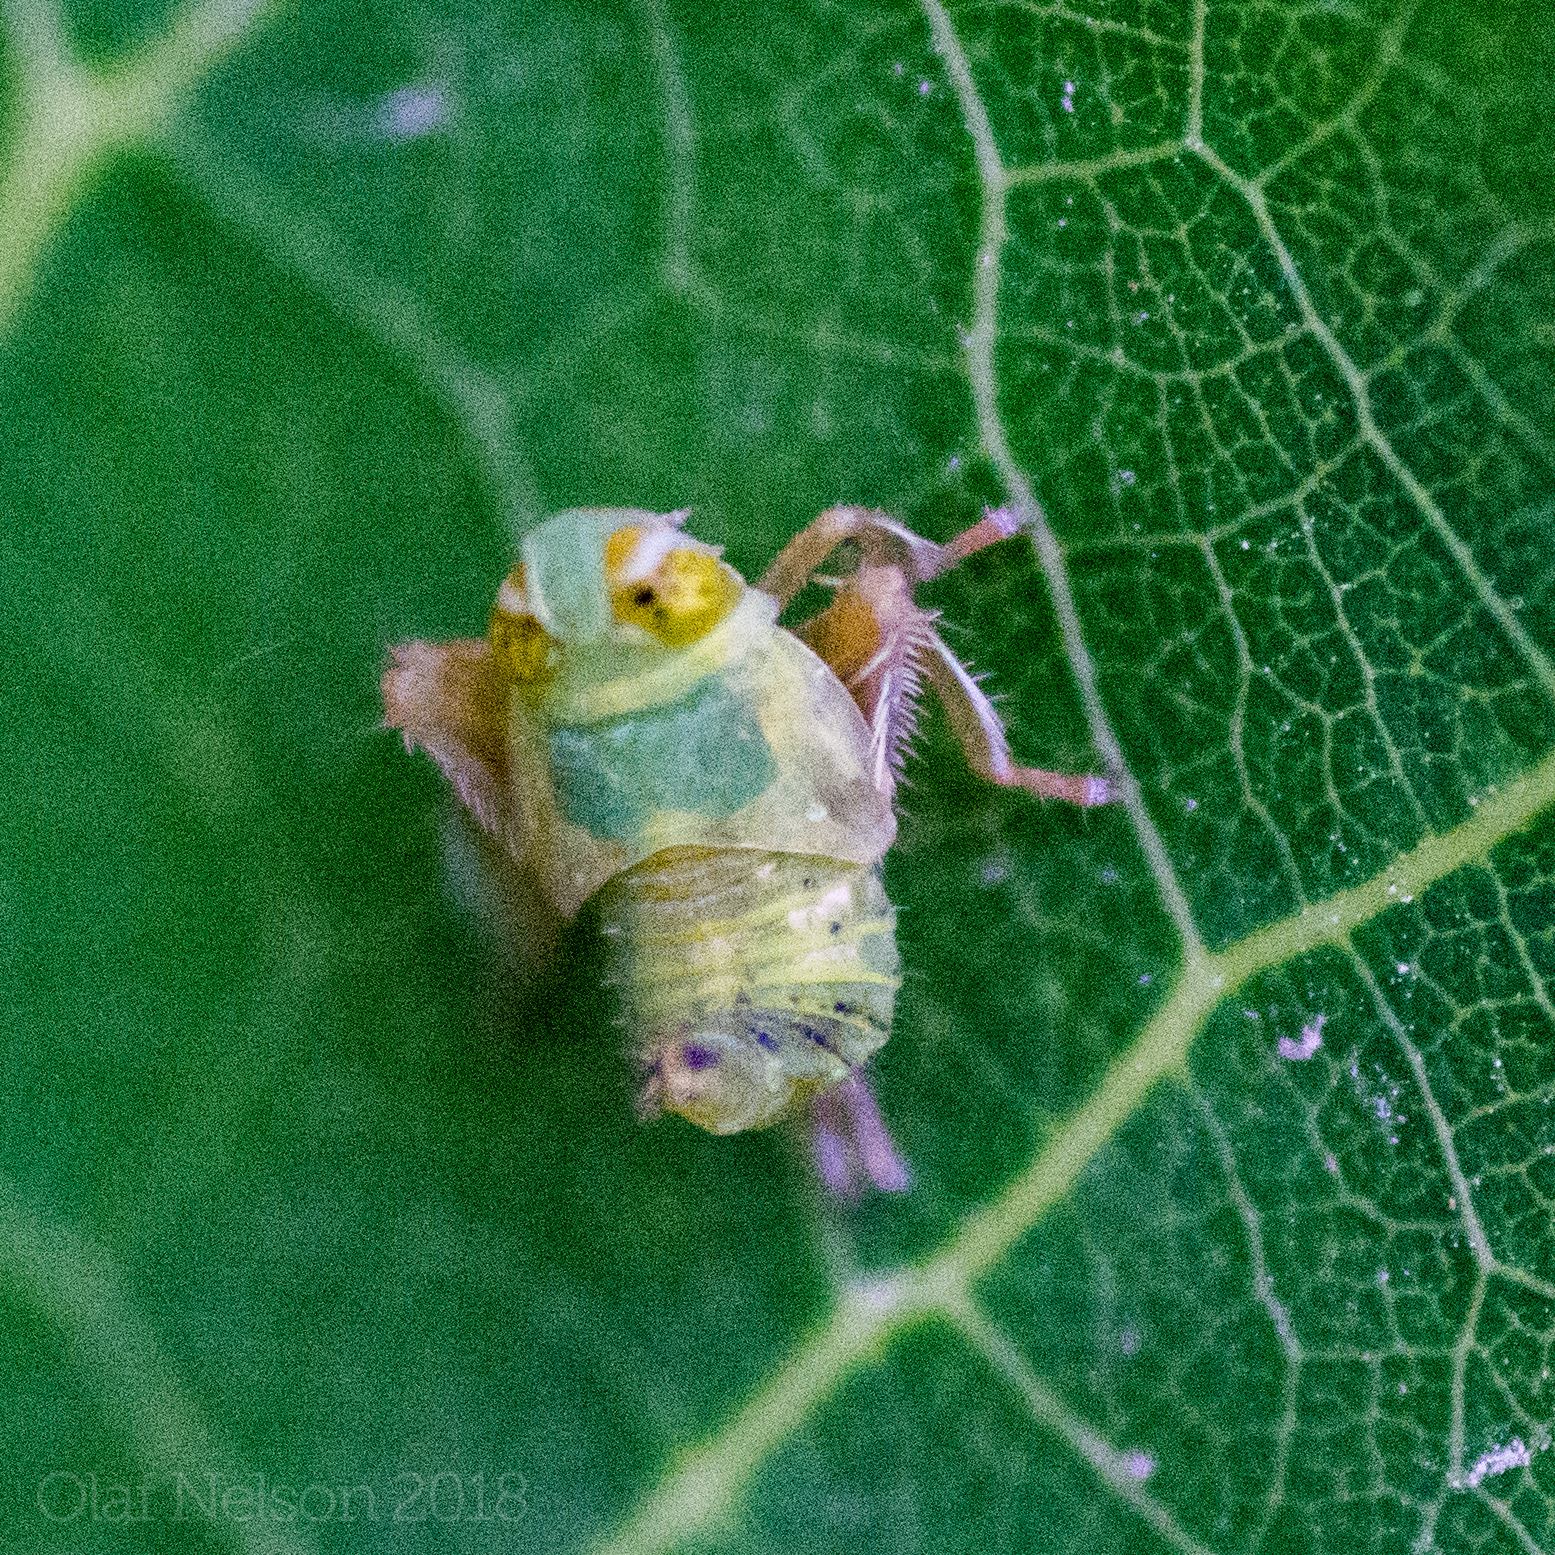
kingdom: Animalia
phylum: Arthropoda
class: Insecta
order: Hemiptera
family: Cicadellidae
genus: Jikradia
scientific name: Jikradia olitoria
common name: Coppery leafhopper
